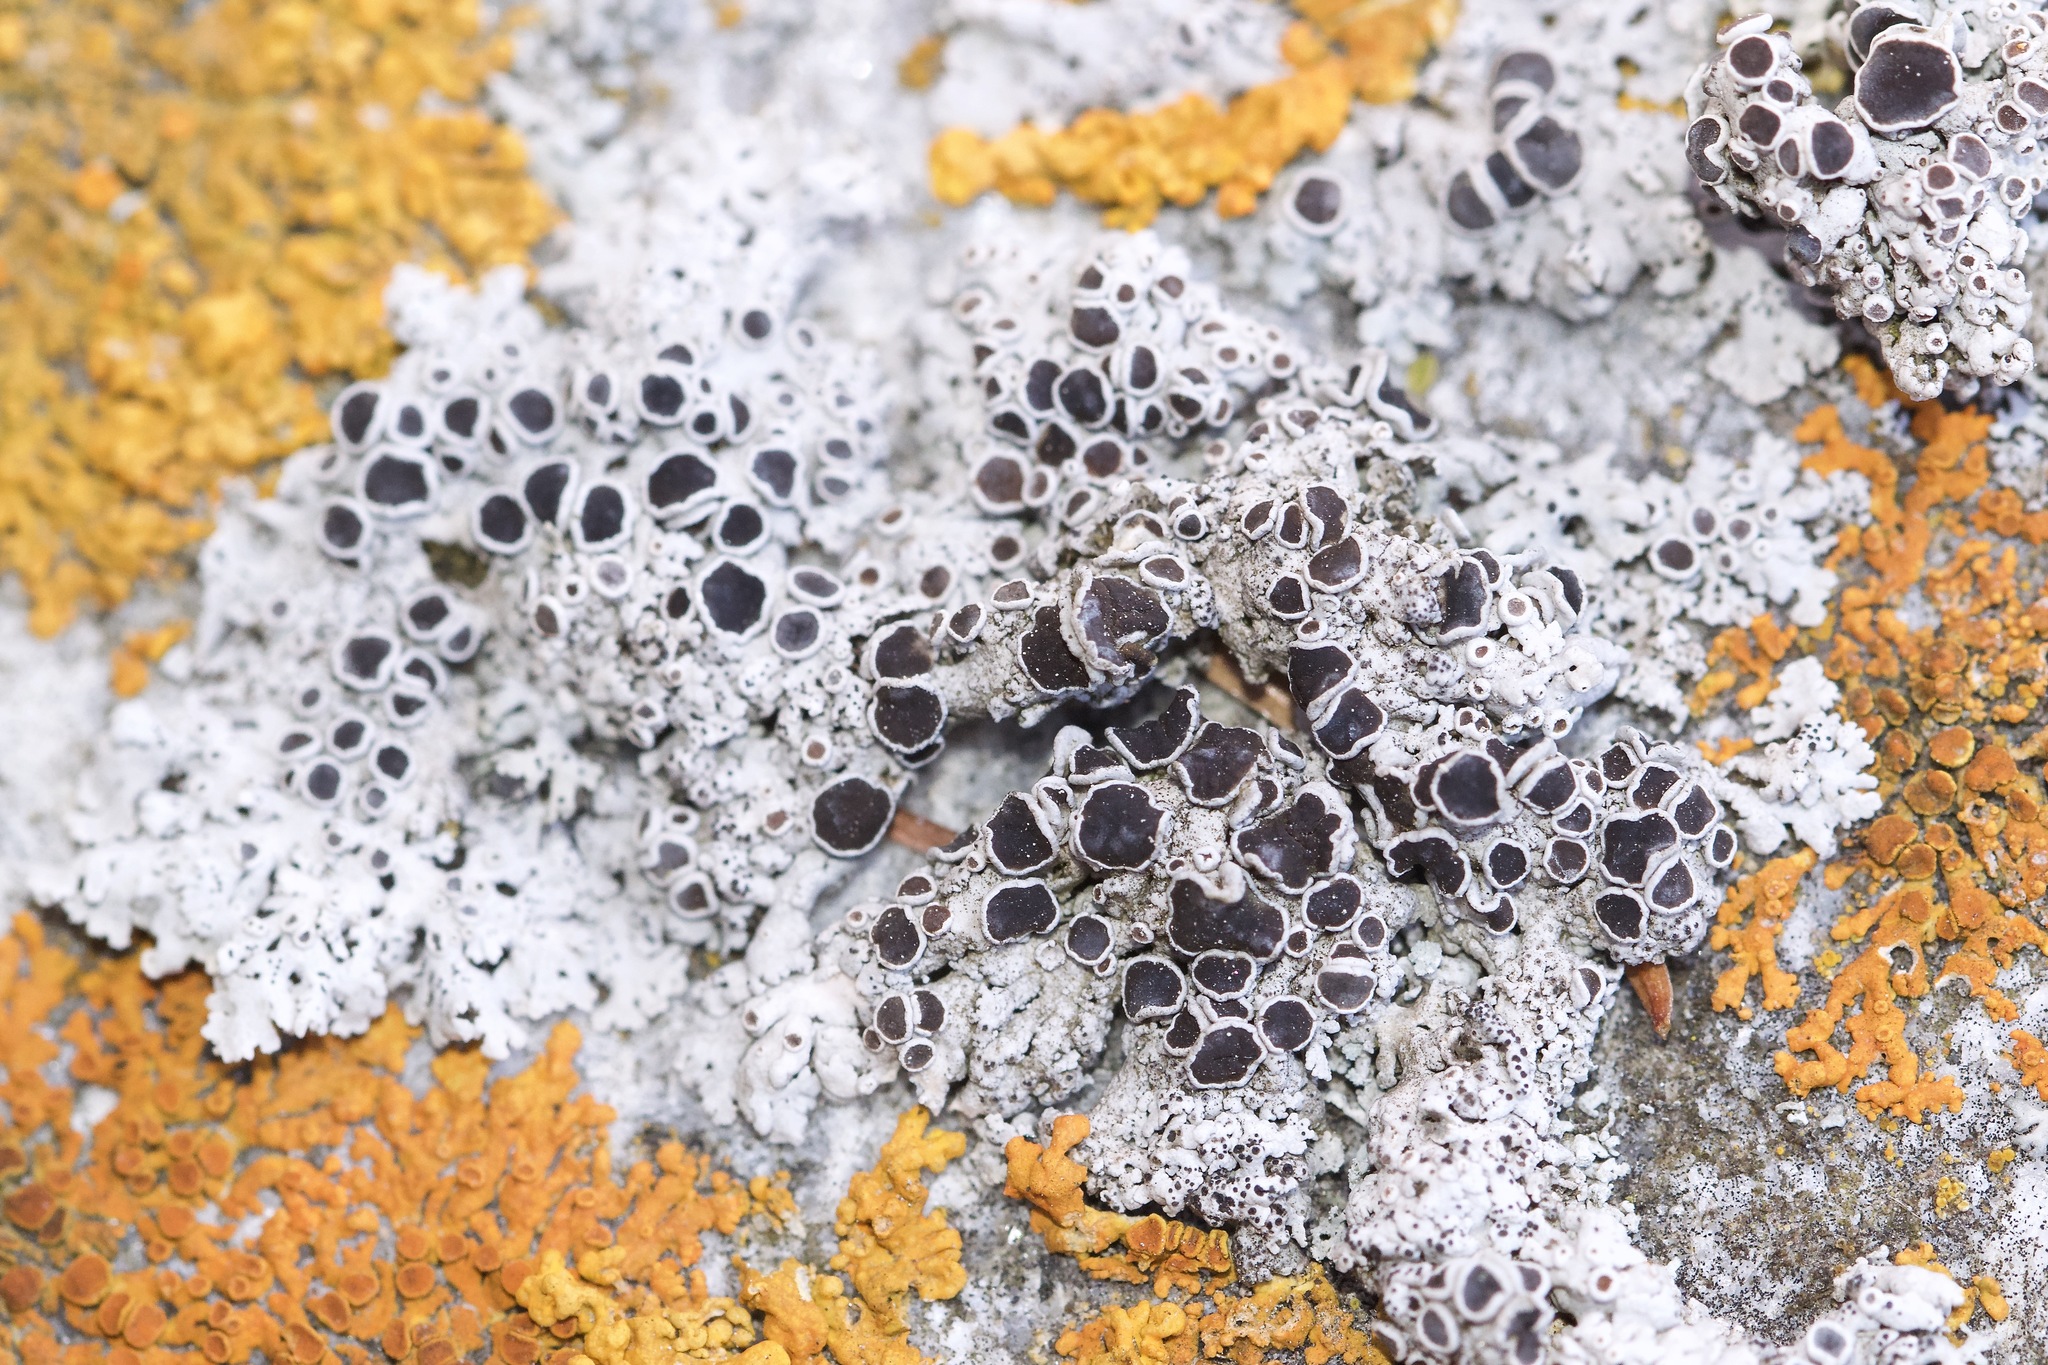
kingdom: Fungi
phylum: Ascomycota
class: Lecanoromycetes
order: Caliciales
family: Physciaceae
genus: Physcia
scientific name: Physcia phaea
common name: Black-eyed rosette lichen
